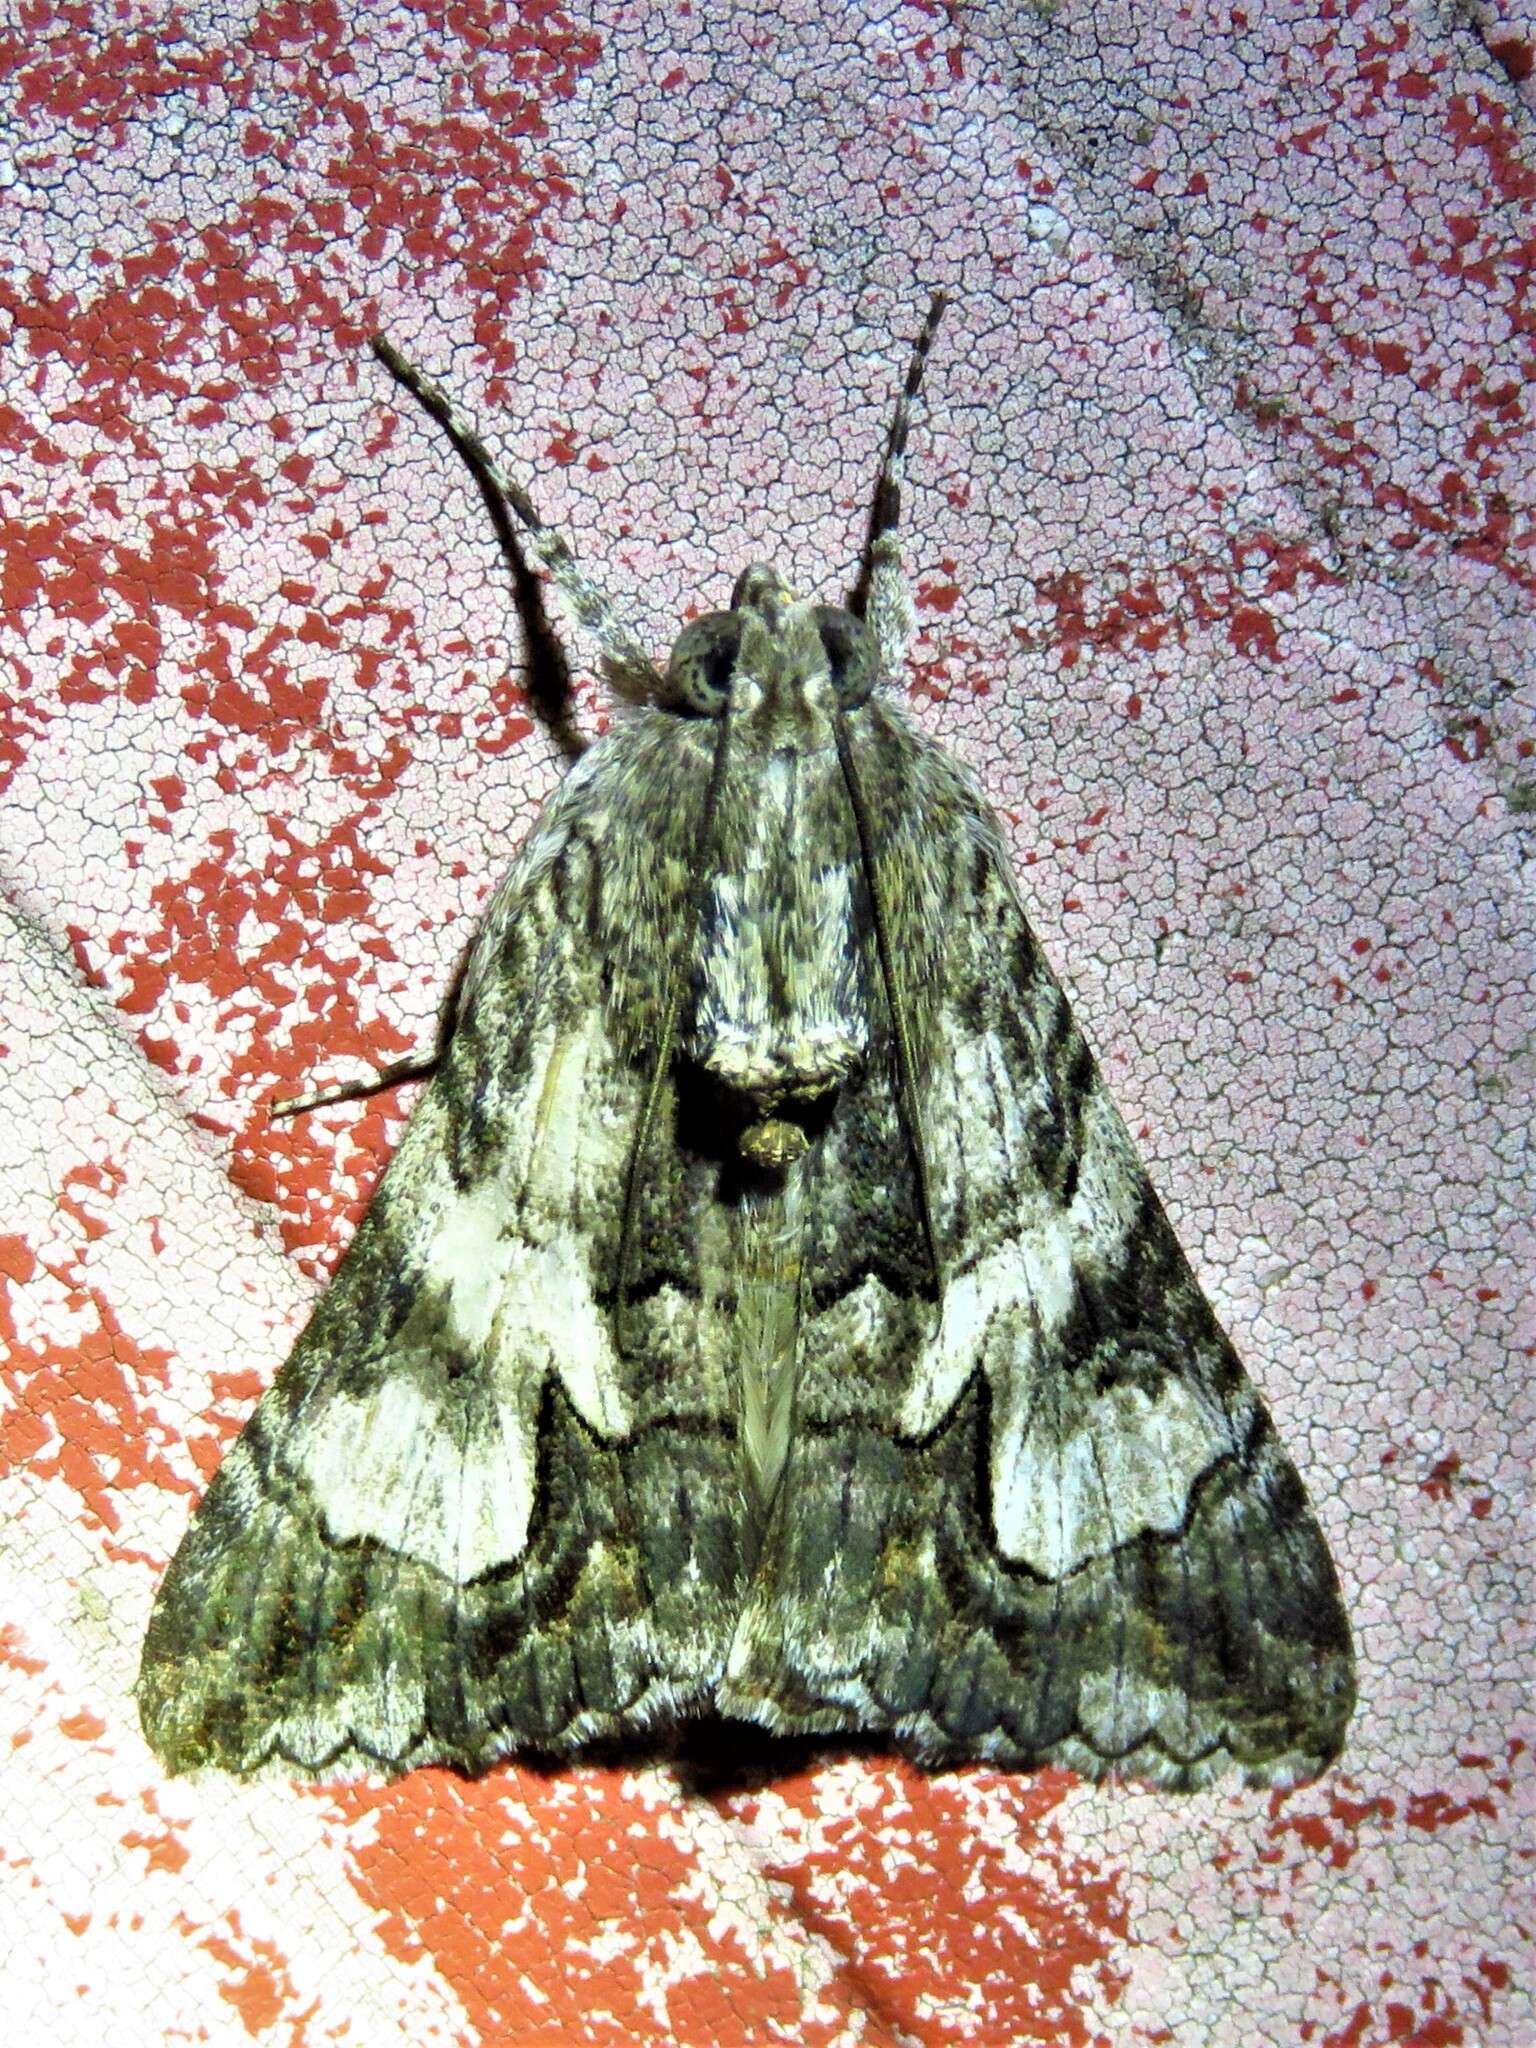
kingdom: Animalia
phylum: Arthropoda
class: Insecta
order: Lepidoptera
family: Erebidae
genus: Melipotis
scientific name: Melipotis jucunda
